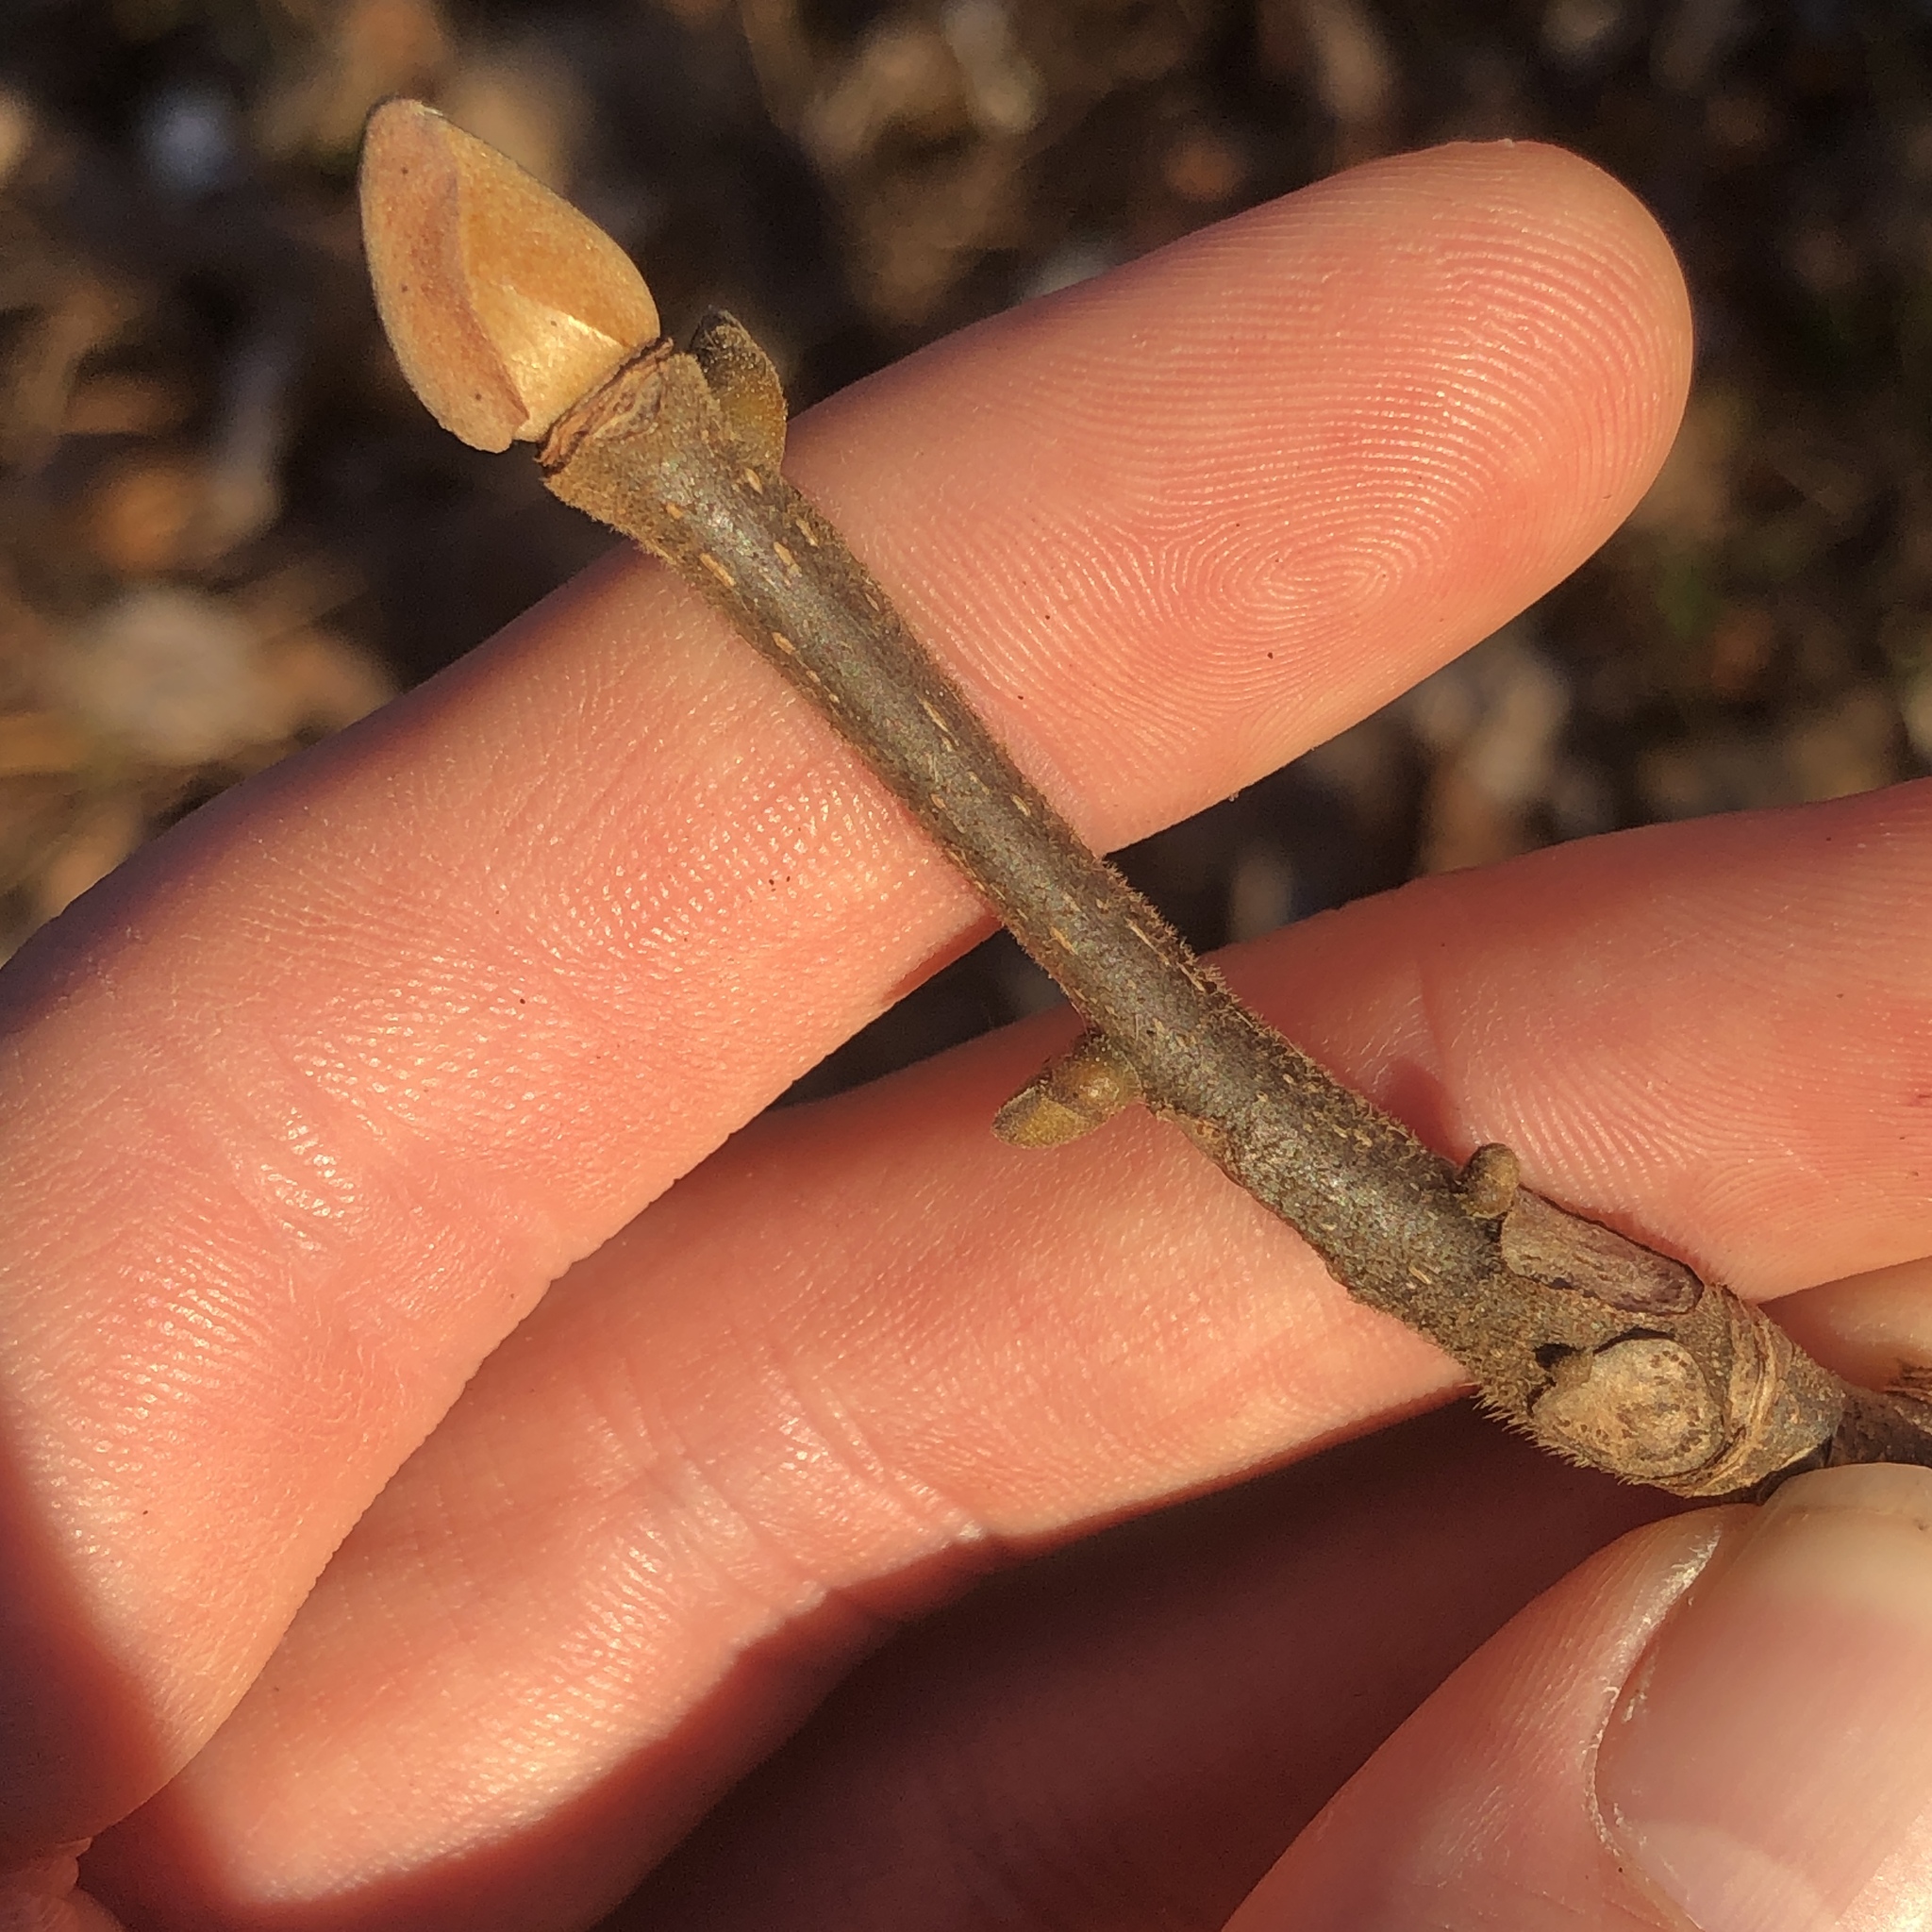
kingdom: Plantae
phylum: Tracheophyta
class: Magnoliopsida
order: Fagales
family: Juglandaceae
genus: Carya
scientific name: Carya alba
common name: Mockernut hickory
